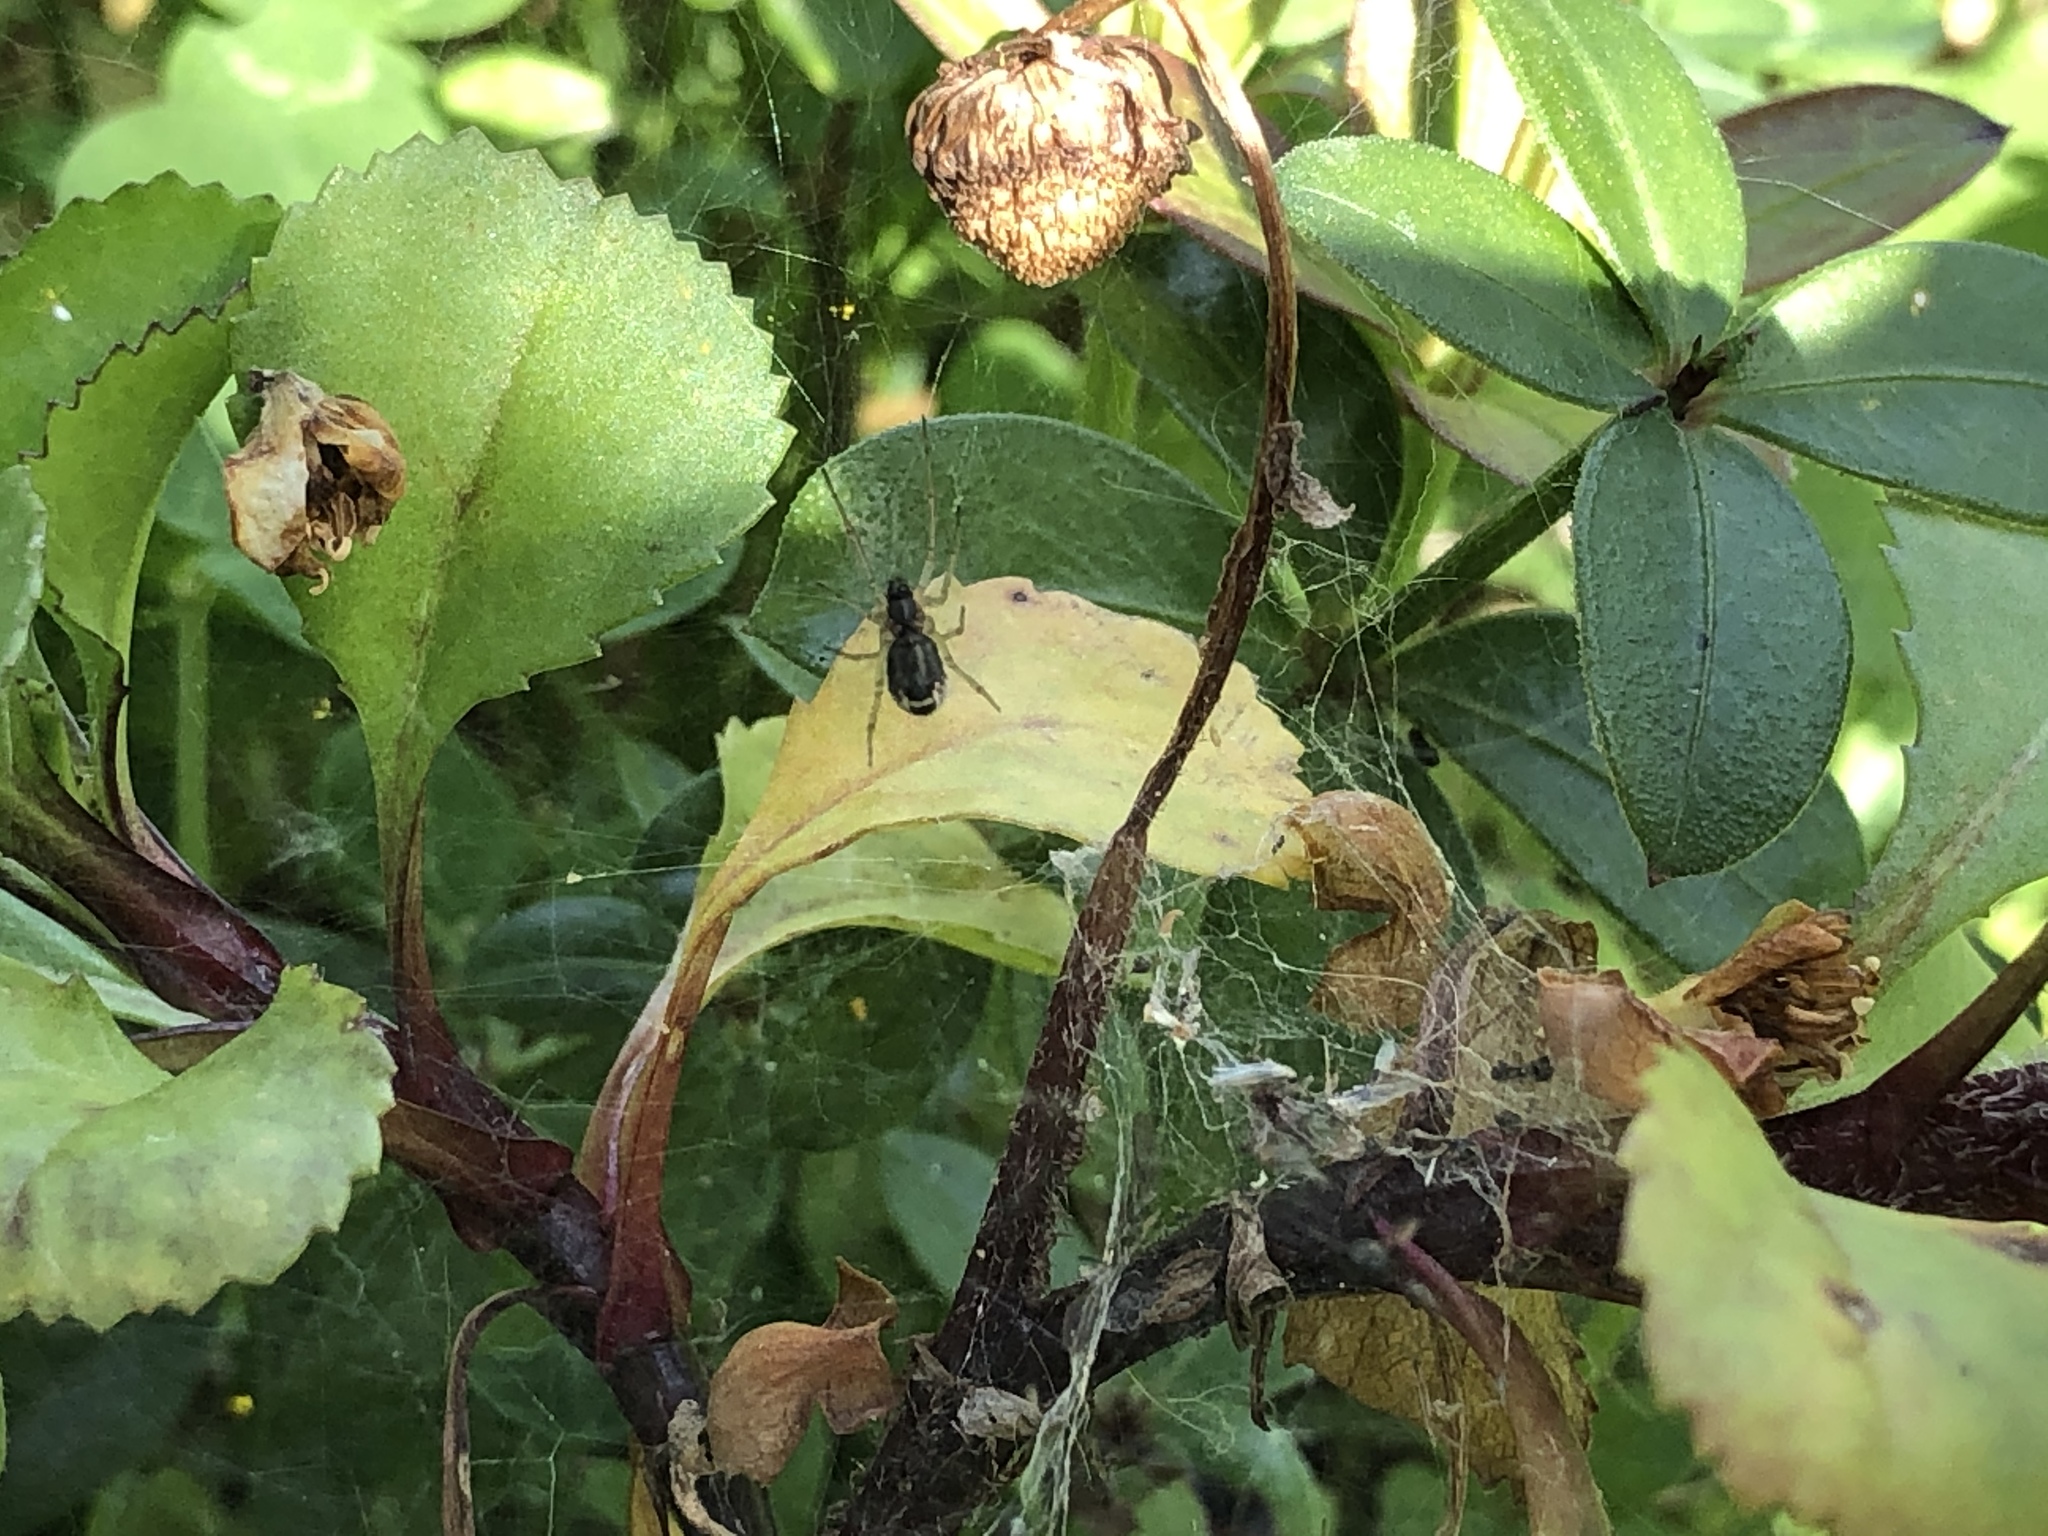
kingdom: Animalia
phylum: Arthropoda
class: Arachnida
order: Araneae
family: Linyphiidae
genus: Frontinellina
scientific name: Frontinellina frutetorum
